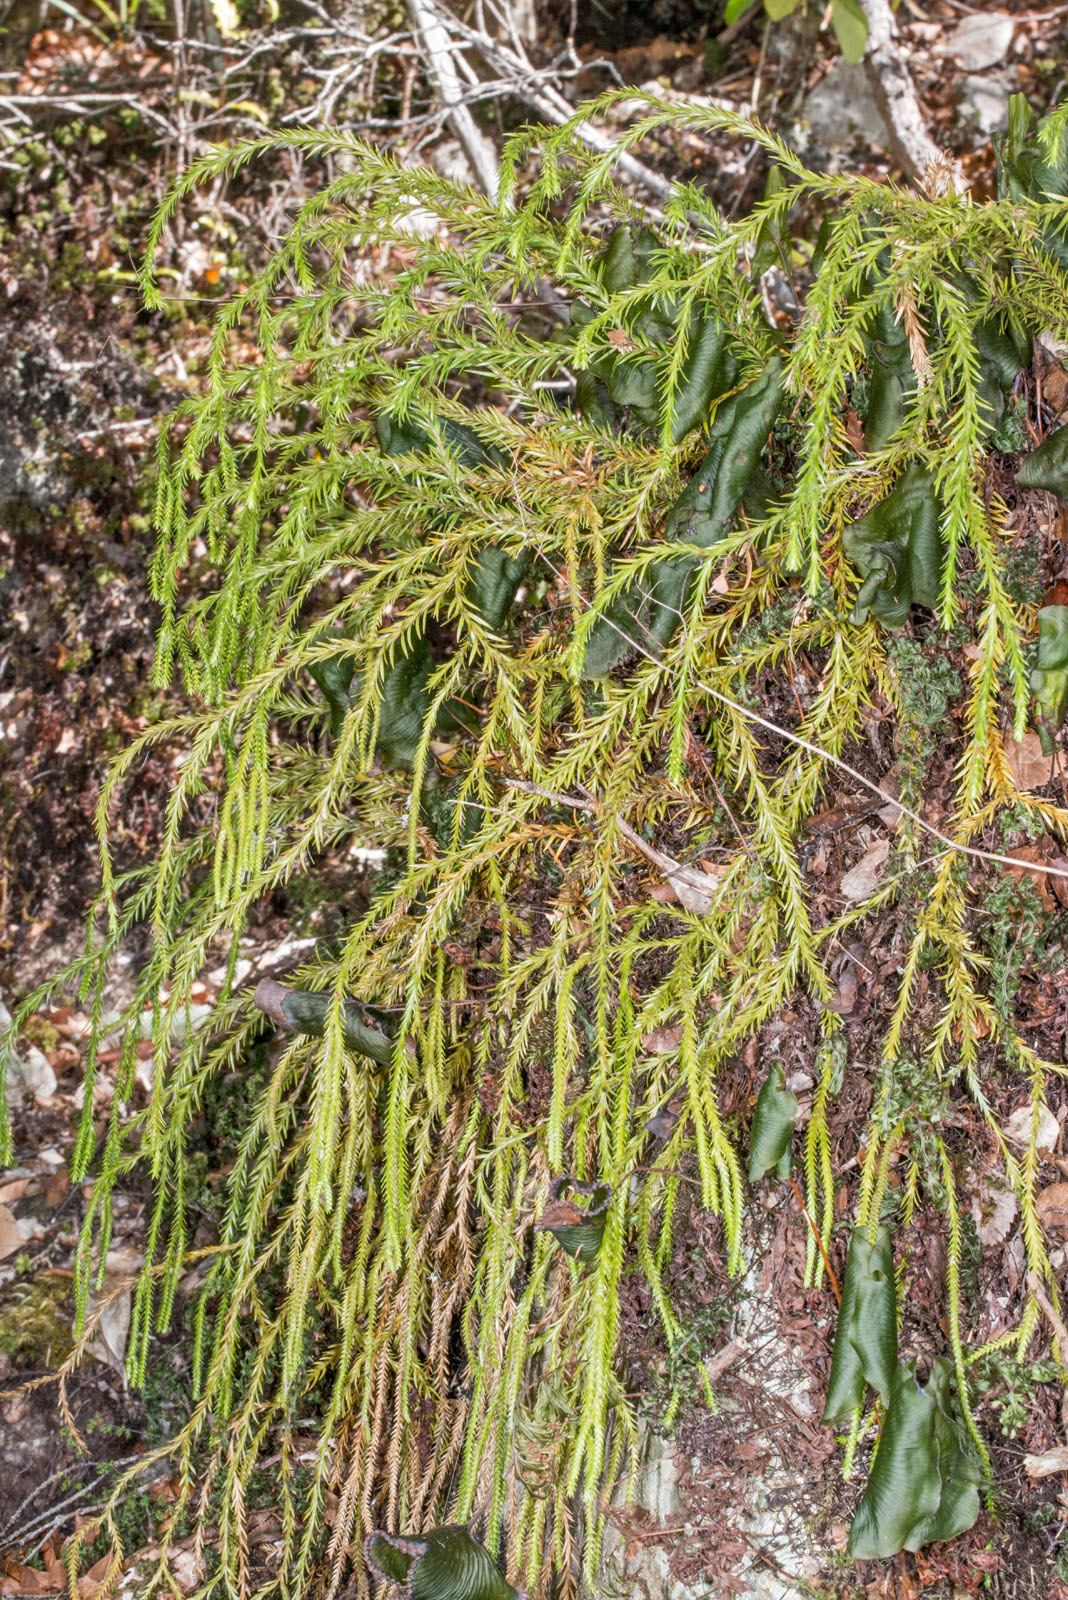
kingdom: Plantae
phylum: Tracheophyta
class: Lycopodiopsida
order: Lycopodiales
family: Lycopodiaceae
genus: Phlegmariurus
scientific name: Phlegmariurus varius
